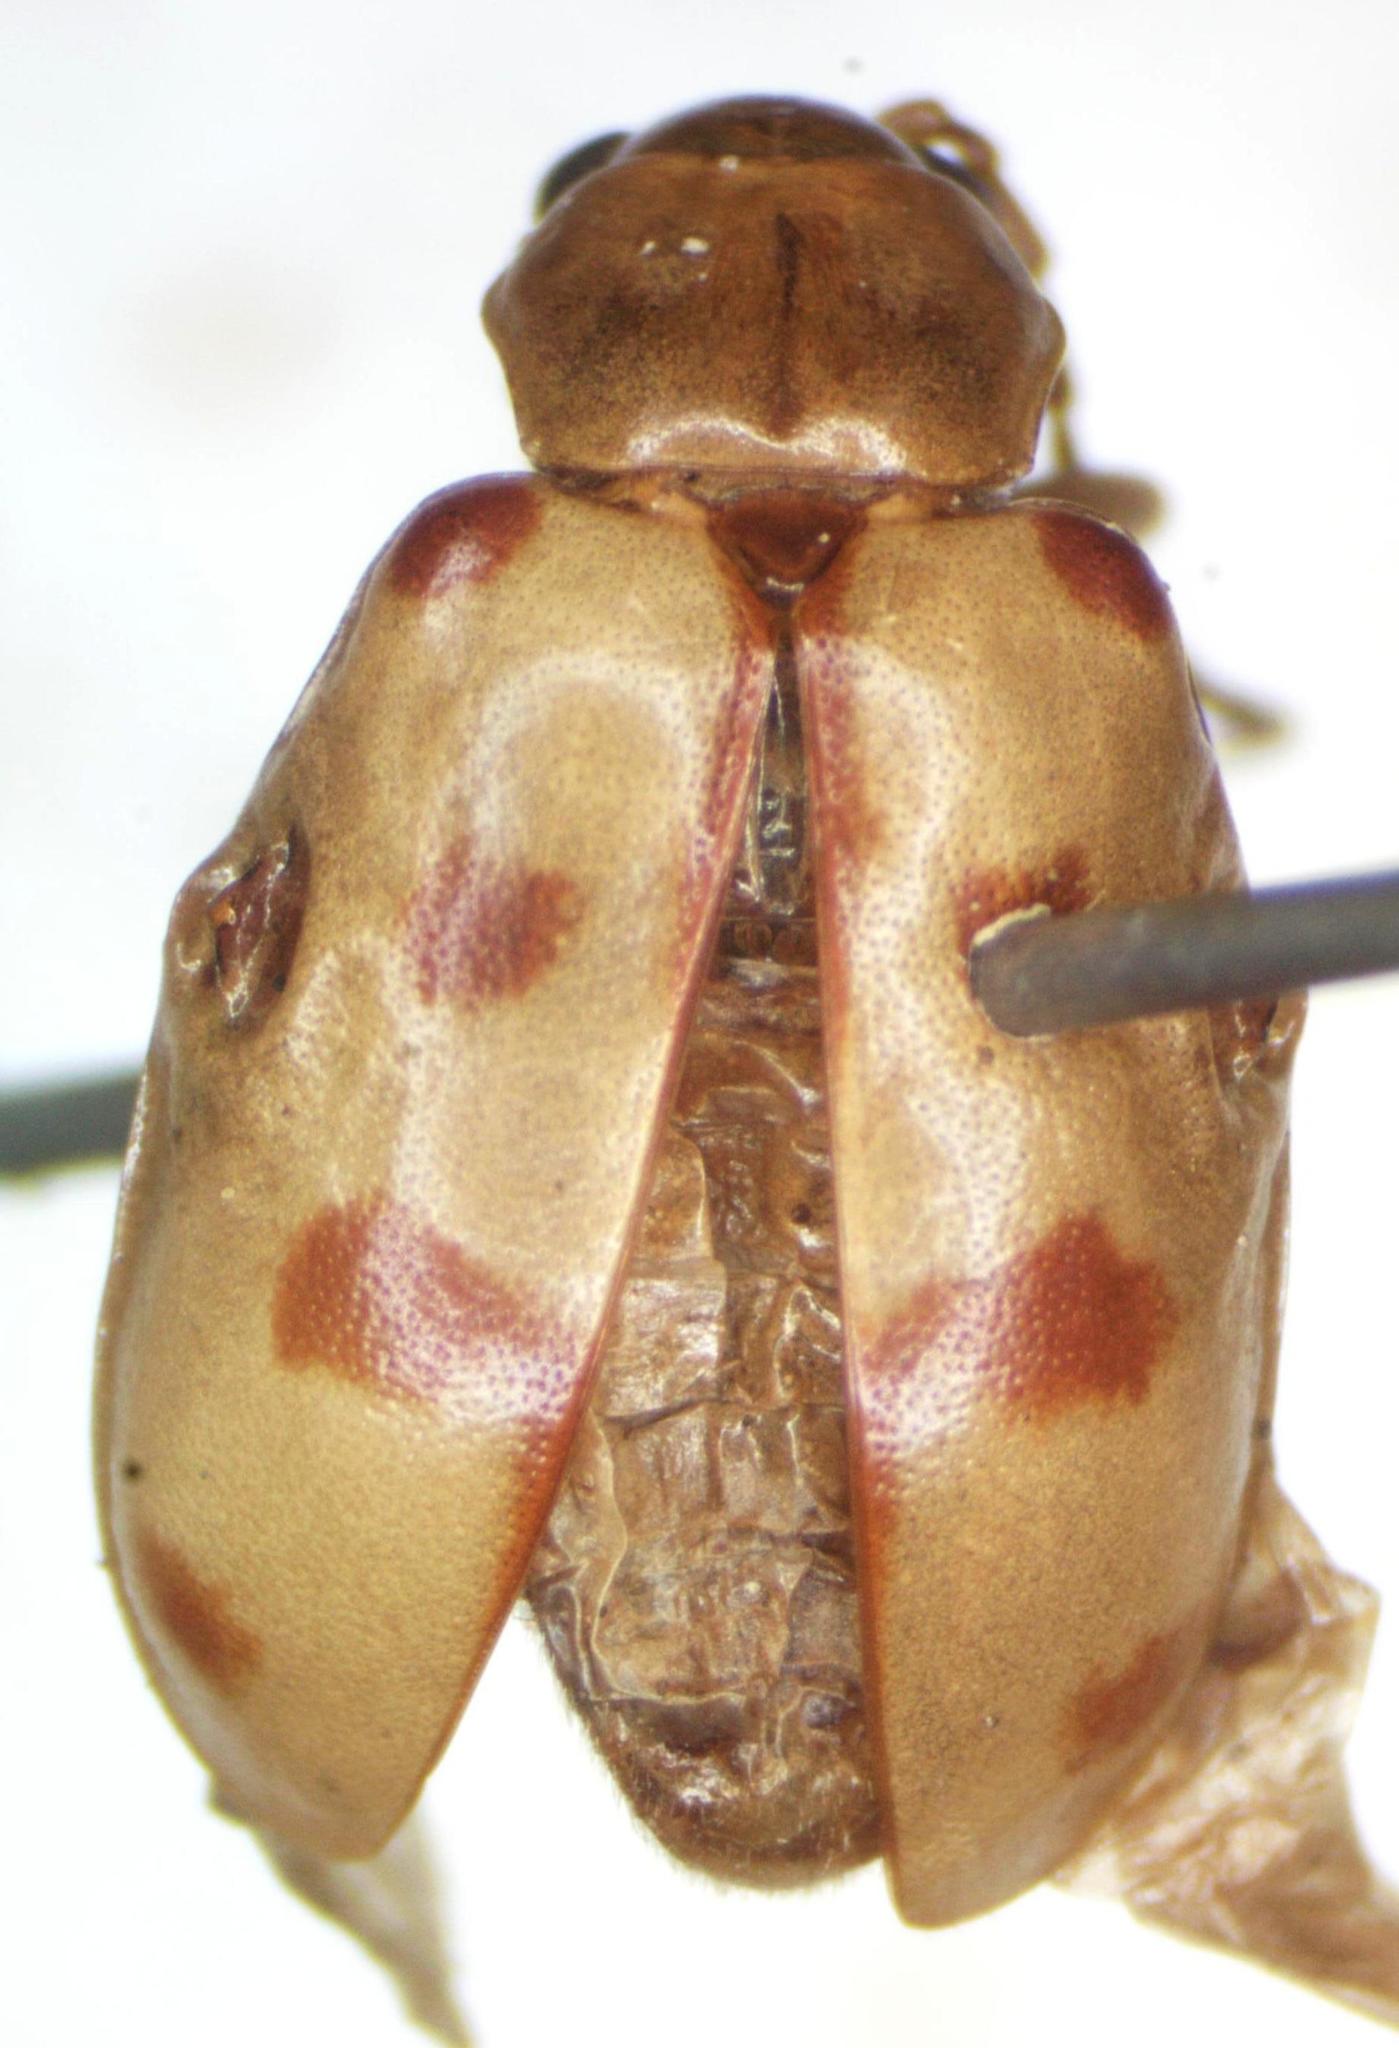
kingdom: Animalia
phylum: Arthropoda
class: Insecta
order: Coleoptera
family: Chrysomelidae
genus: Malacorhinus
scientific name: Malacorhinus
